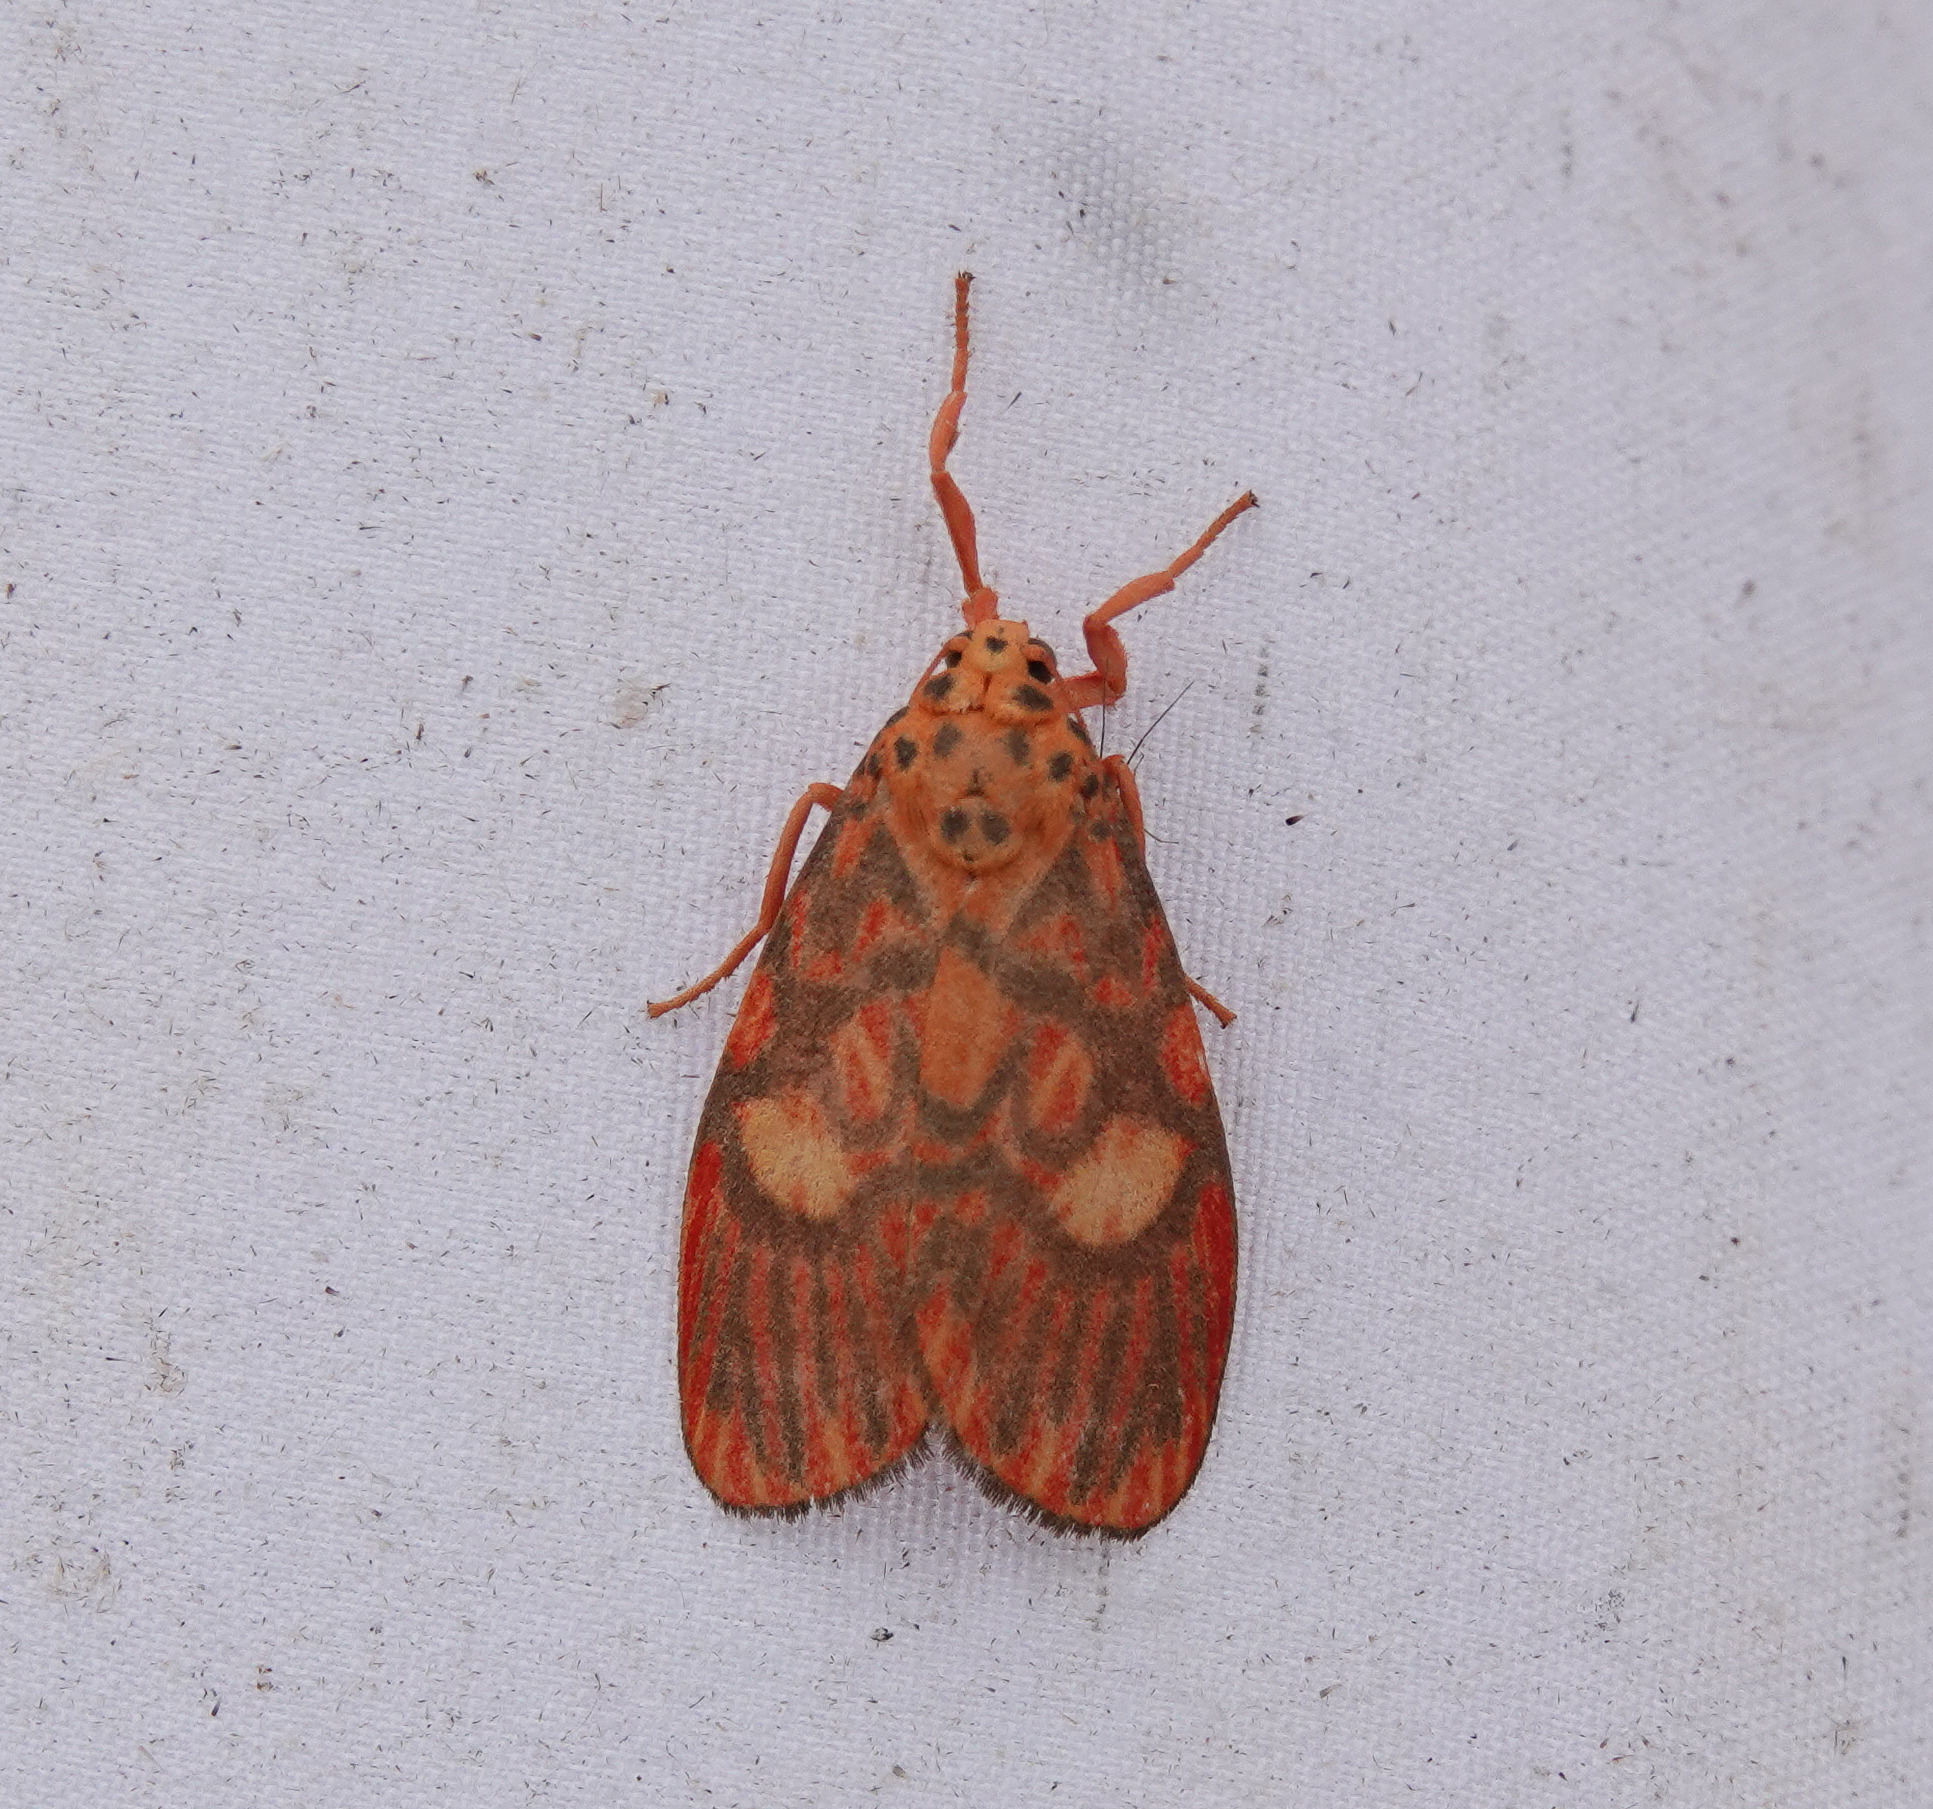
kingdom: Animalia
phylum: Arthropoda
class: Insecta
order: Lepidoptera
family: Erebidae
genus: Ammatho
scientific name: Ammatho cuneonotatus
